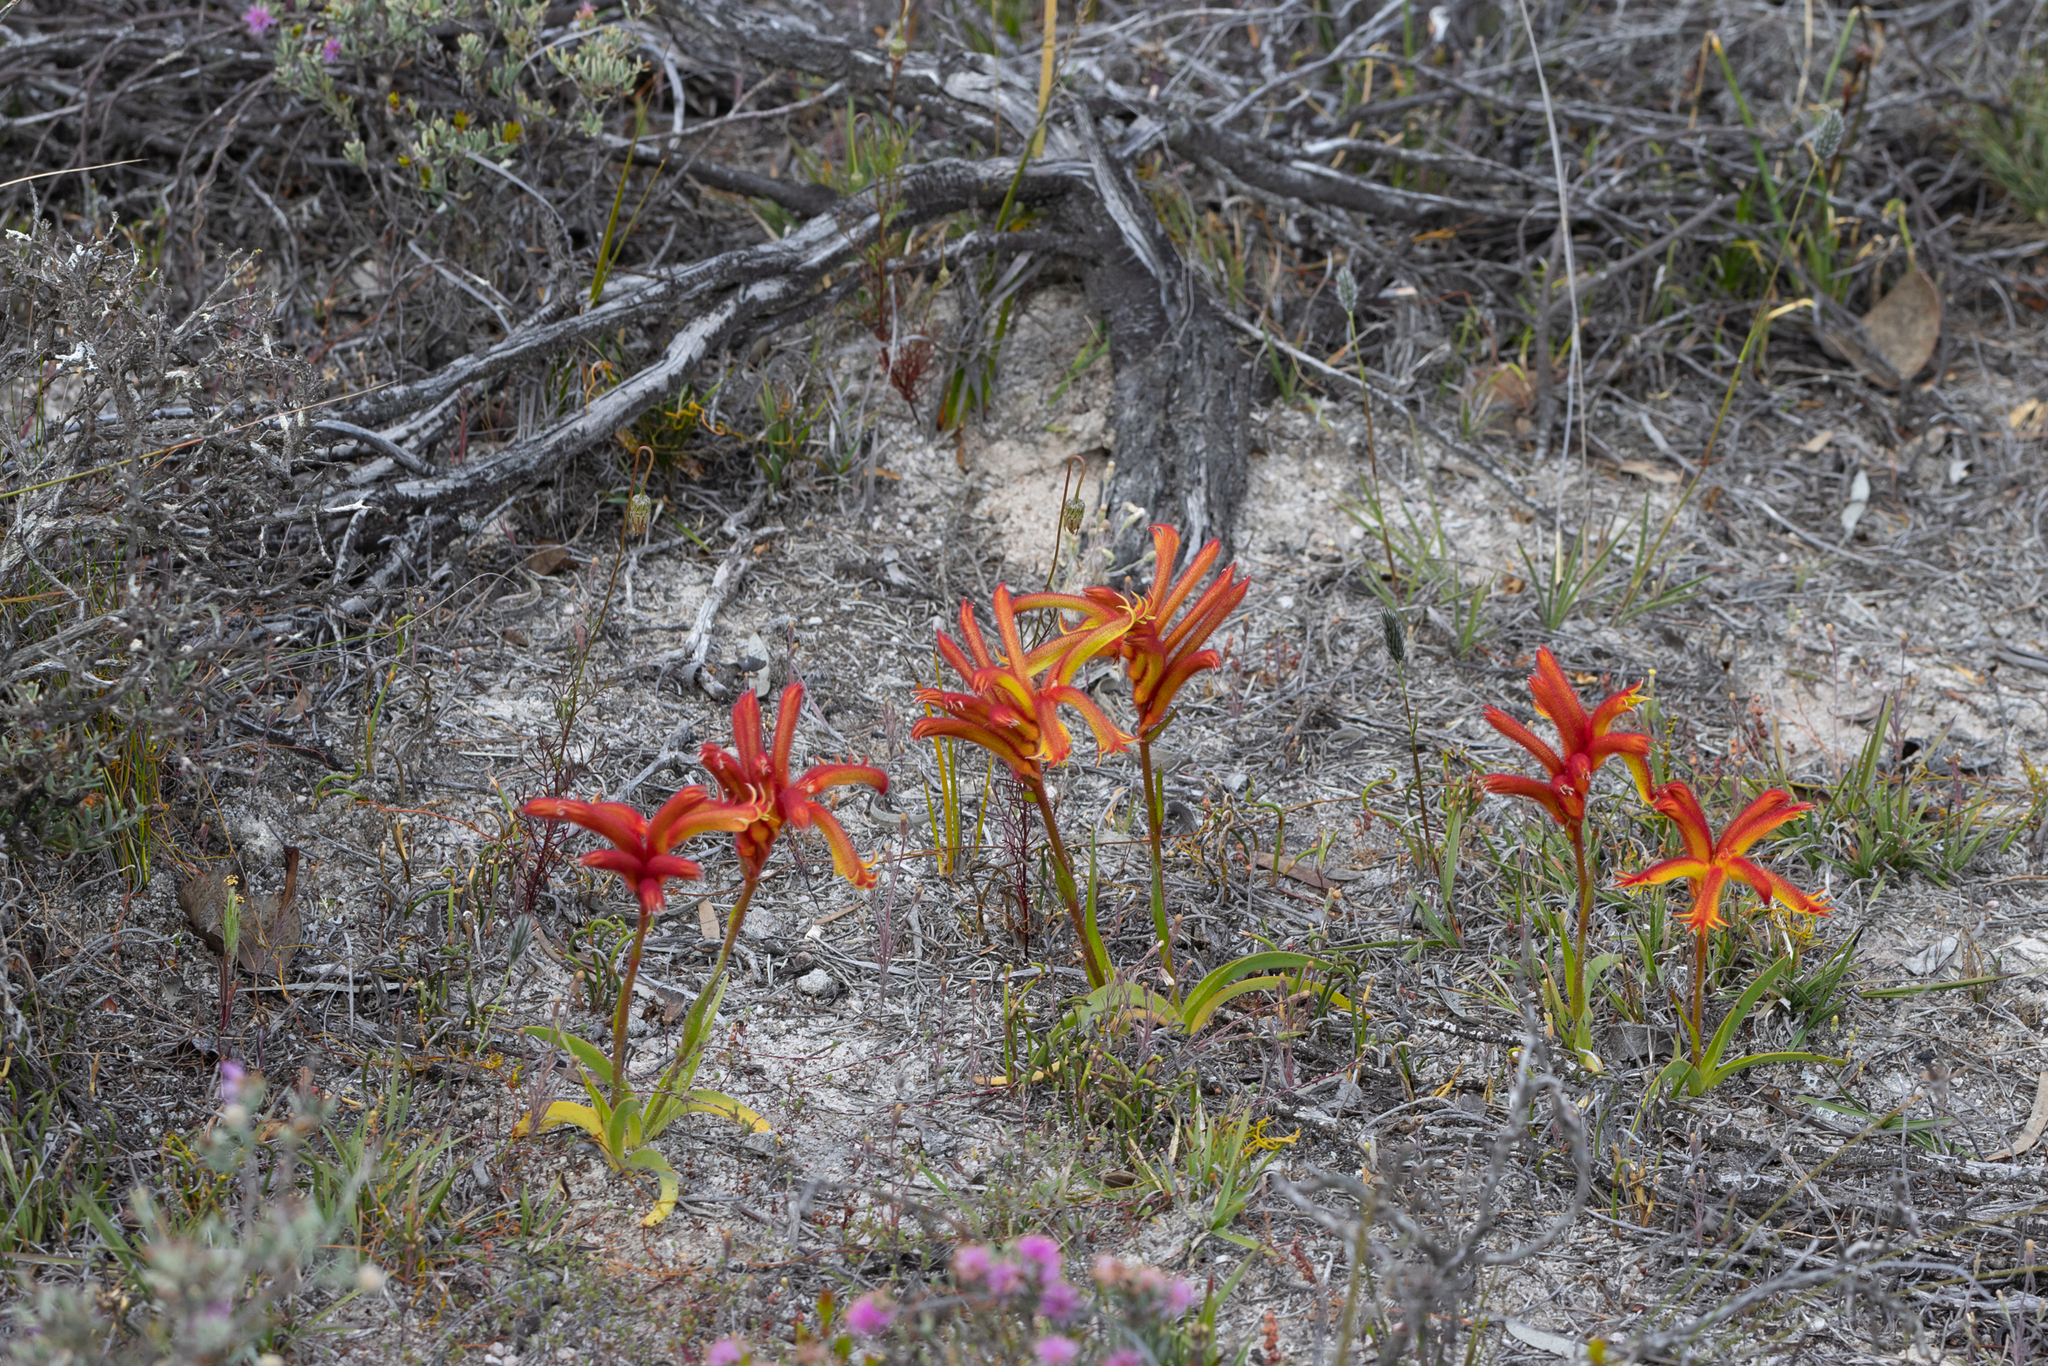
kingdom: Plantae
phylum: Tracheophyta
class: Liliopsida
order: Commelinales
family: Haemodoraceae
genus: Anigozanthos
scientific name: Anigozanthos humilis
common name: Cat's-paw
